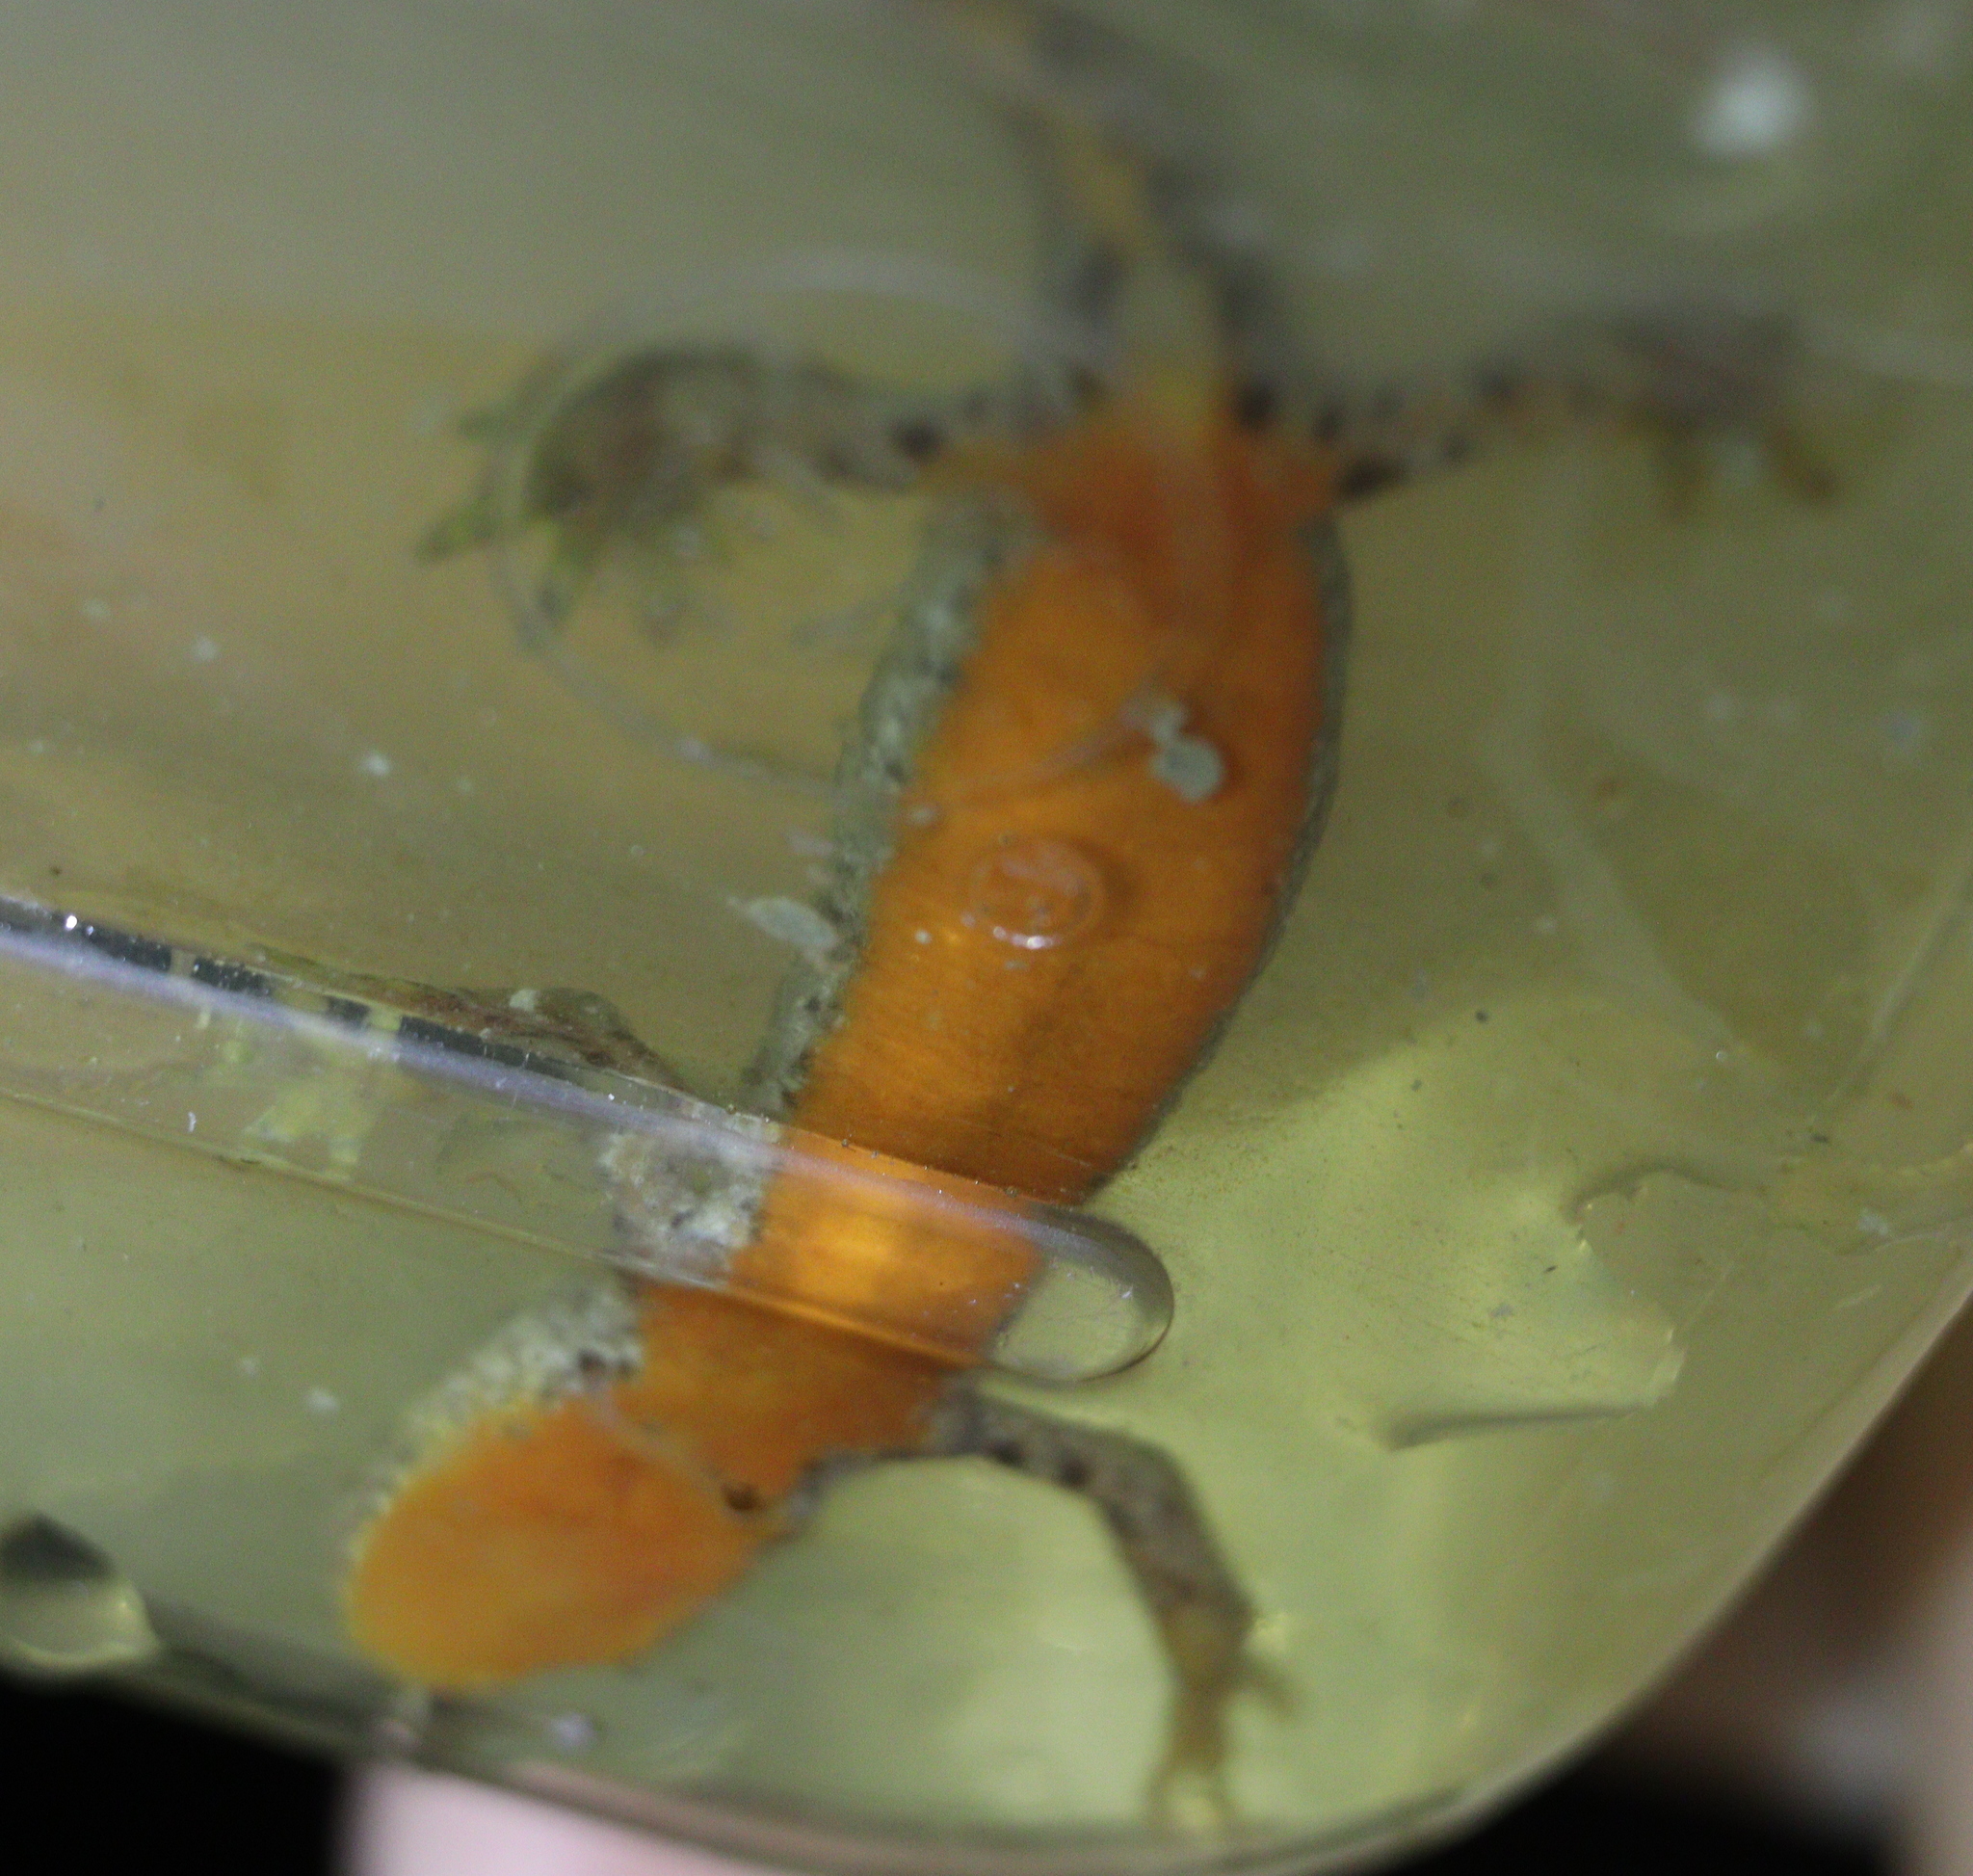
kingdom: Animalia
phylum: Chordata
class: Amphibia
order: Caudata
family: Salamandridae
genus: Ichthyosaura
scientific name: Ichthyosaura alpestris
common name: Alpine newt
